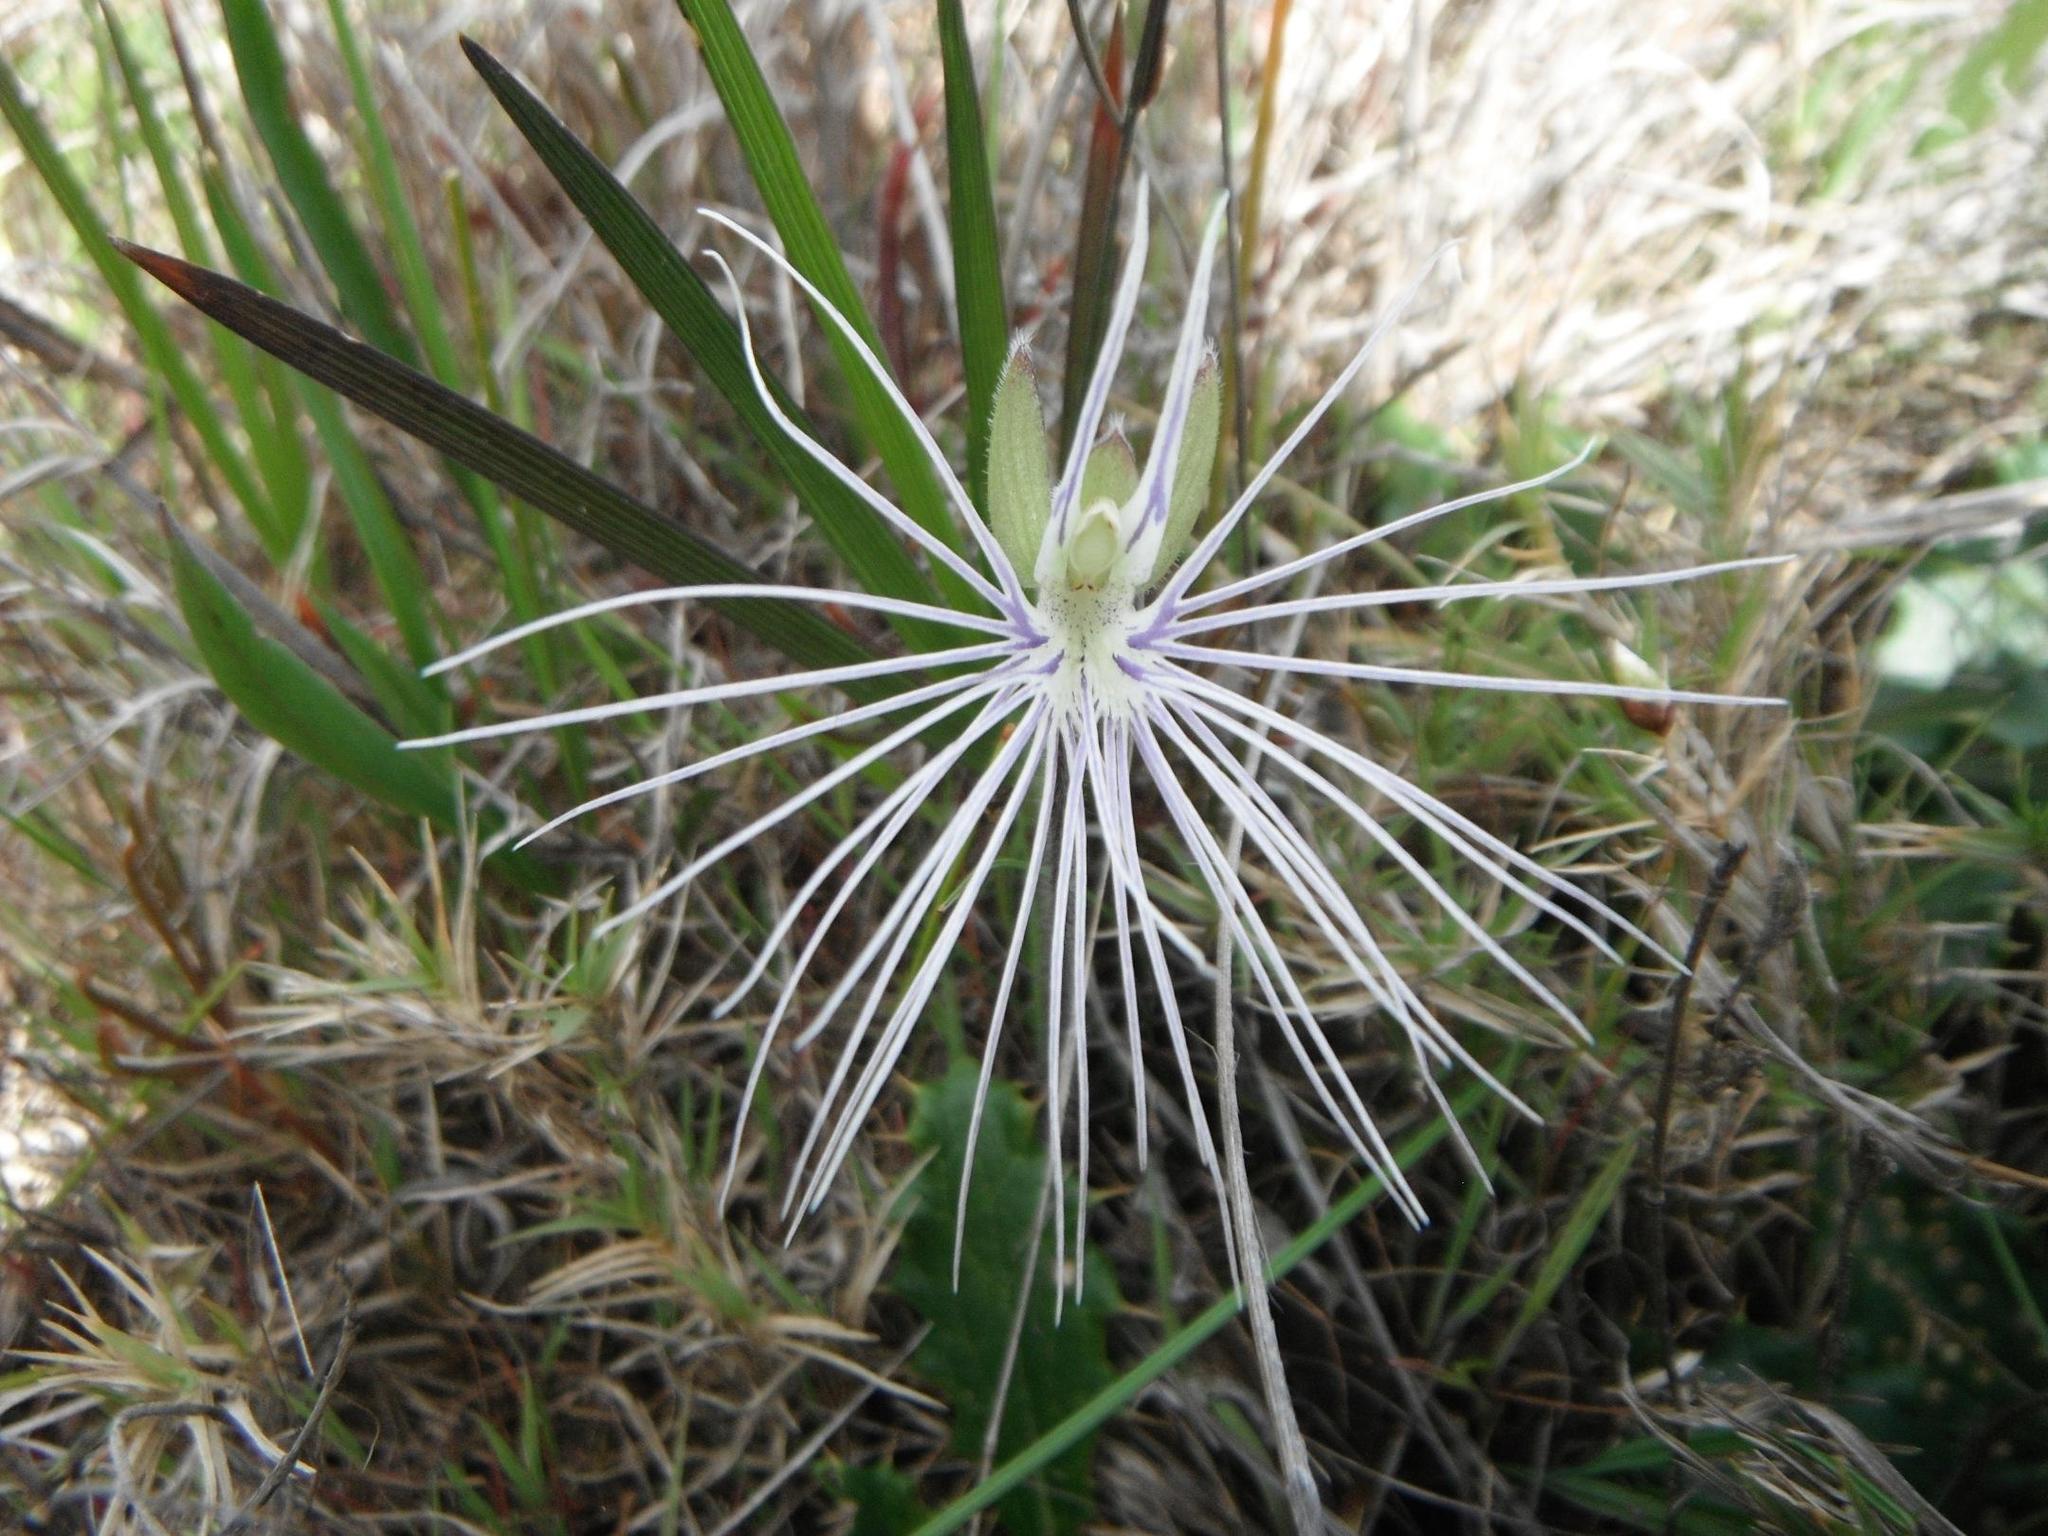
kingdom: Plantae
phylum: Tracheophyta
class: Liliopsida
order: Asparagales
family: Orchidaceae
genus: Holothrix
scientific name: Holothrix burmanniana
